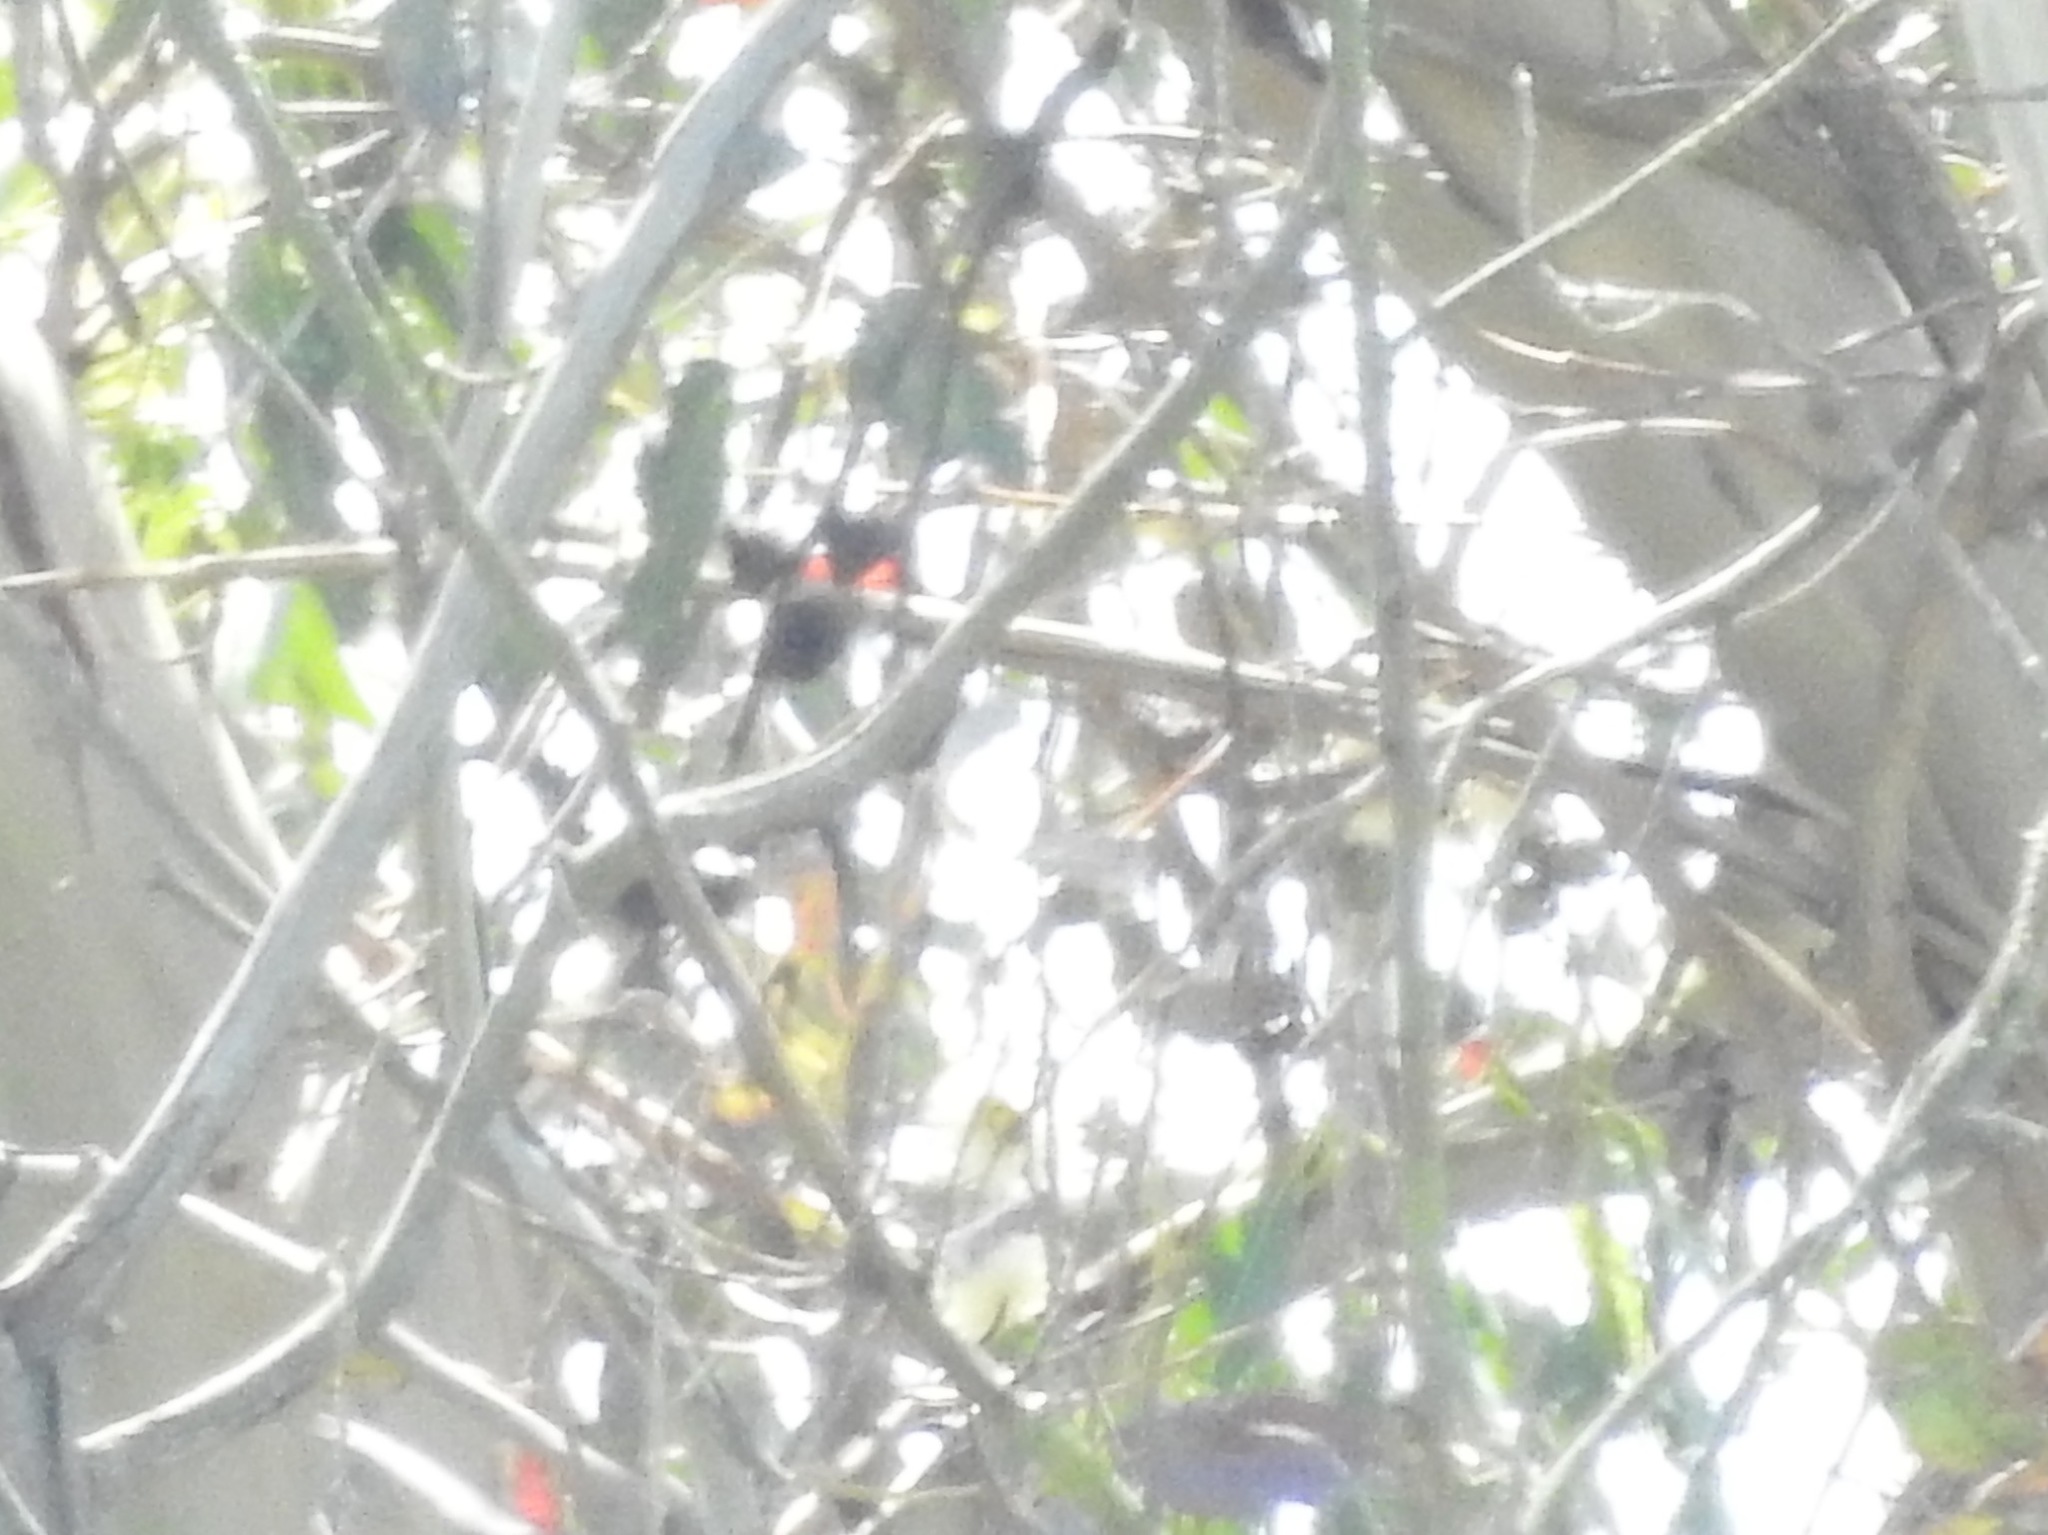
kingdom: Animalia
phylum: Chordata
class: Aves
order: Passeriformes
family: Icteridae
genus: Agelaius
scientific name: Agelaius phoeniceus
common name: Red-winged blackbird
